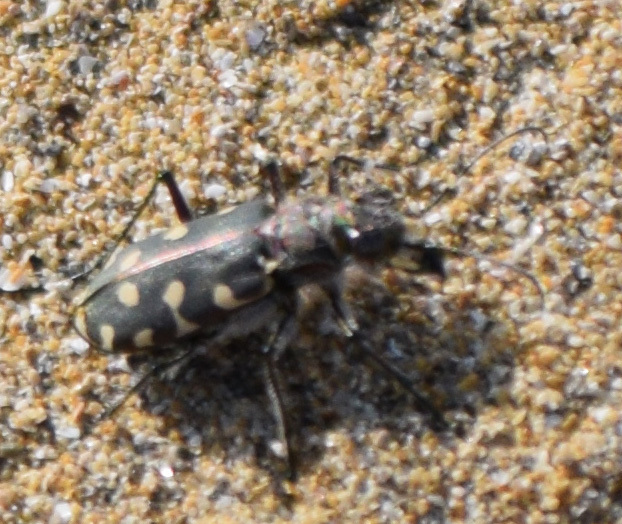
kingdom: Animalia
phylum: Arthropoda
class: Insecta
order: Coleoptera
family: Carabidae
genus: Cicindela
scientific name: Cicindela littoralis
